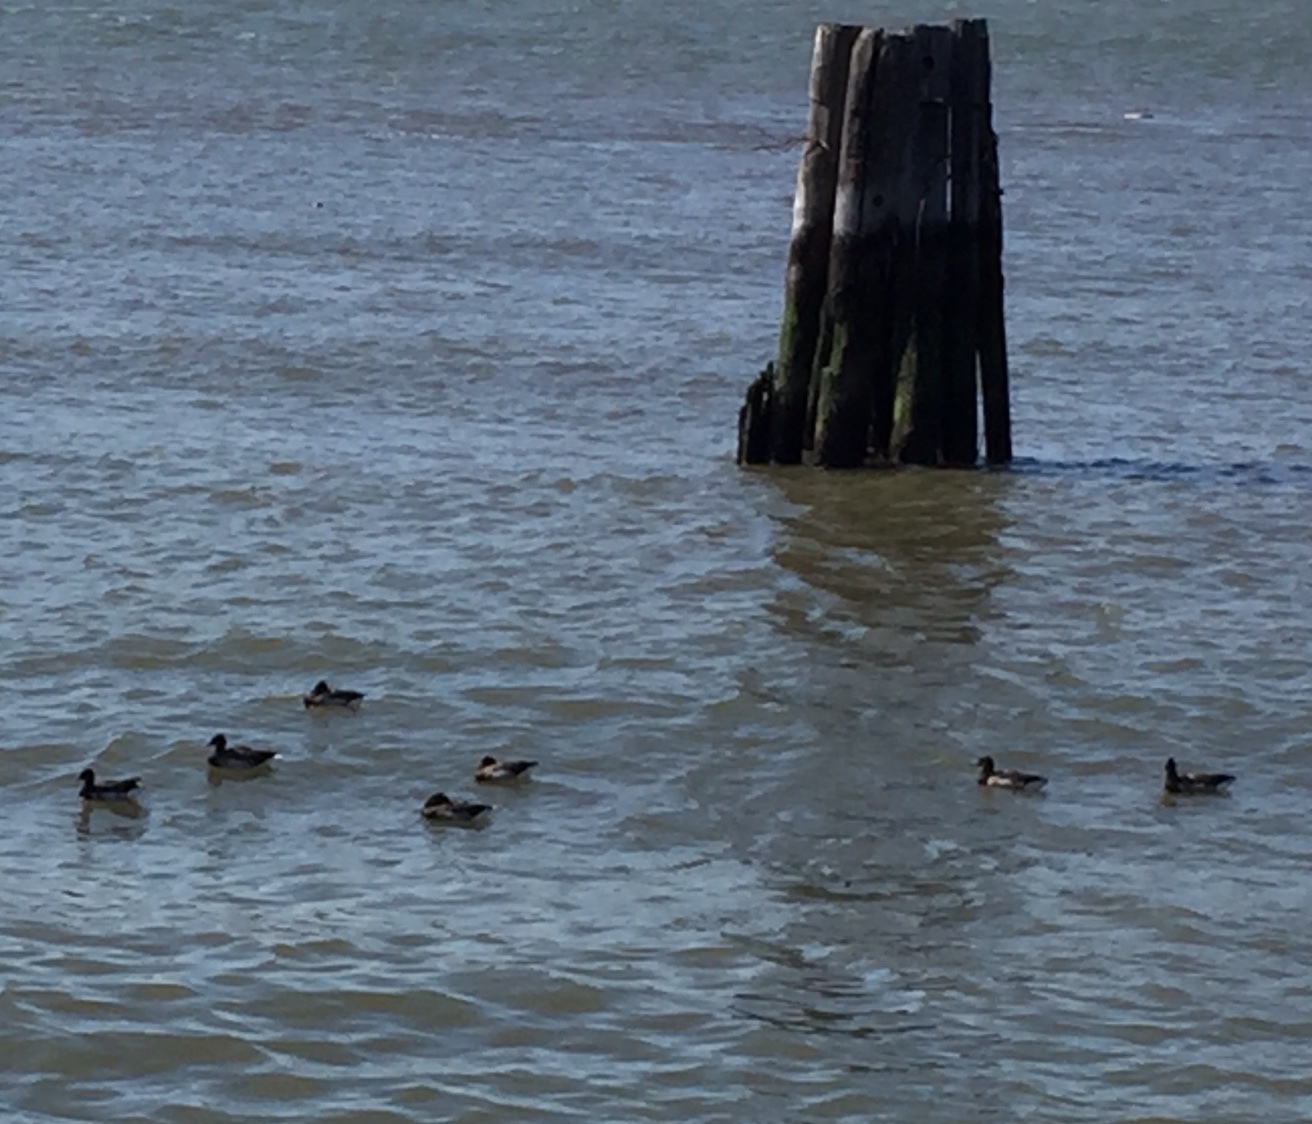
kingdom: Animalia
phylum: Chordata
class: Aves
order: Anseriformes
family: Anatidae
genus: Branta
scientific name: Branta bernicla
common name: Brant goose
